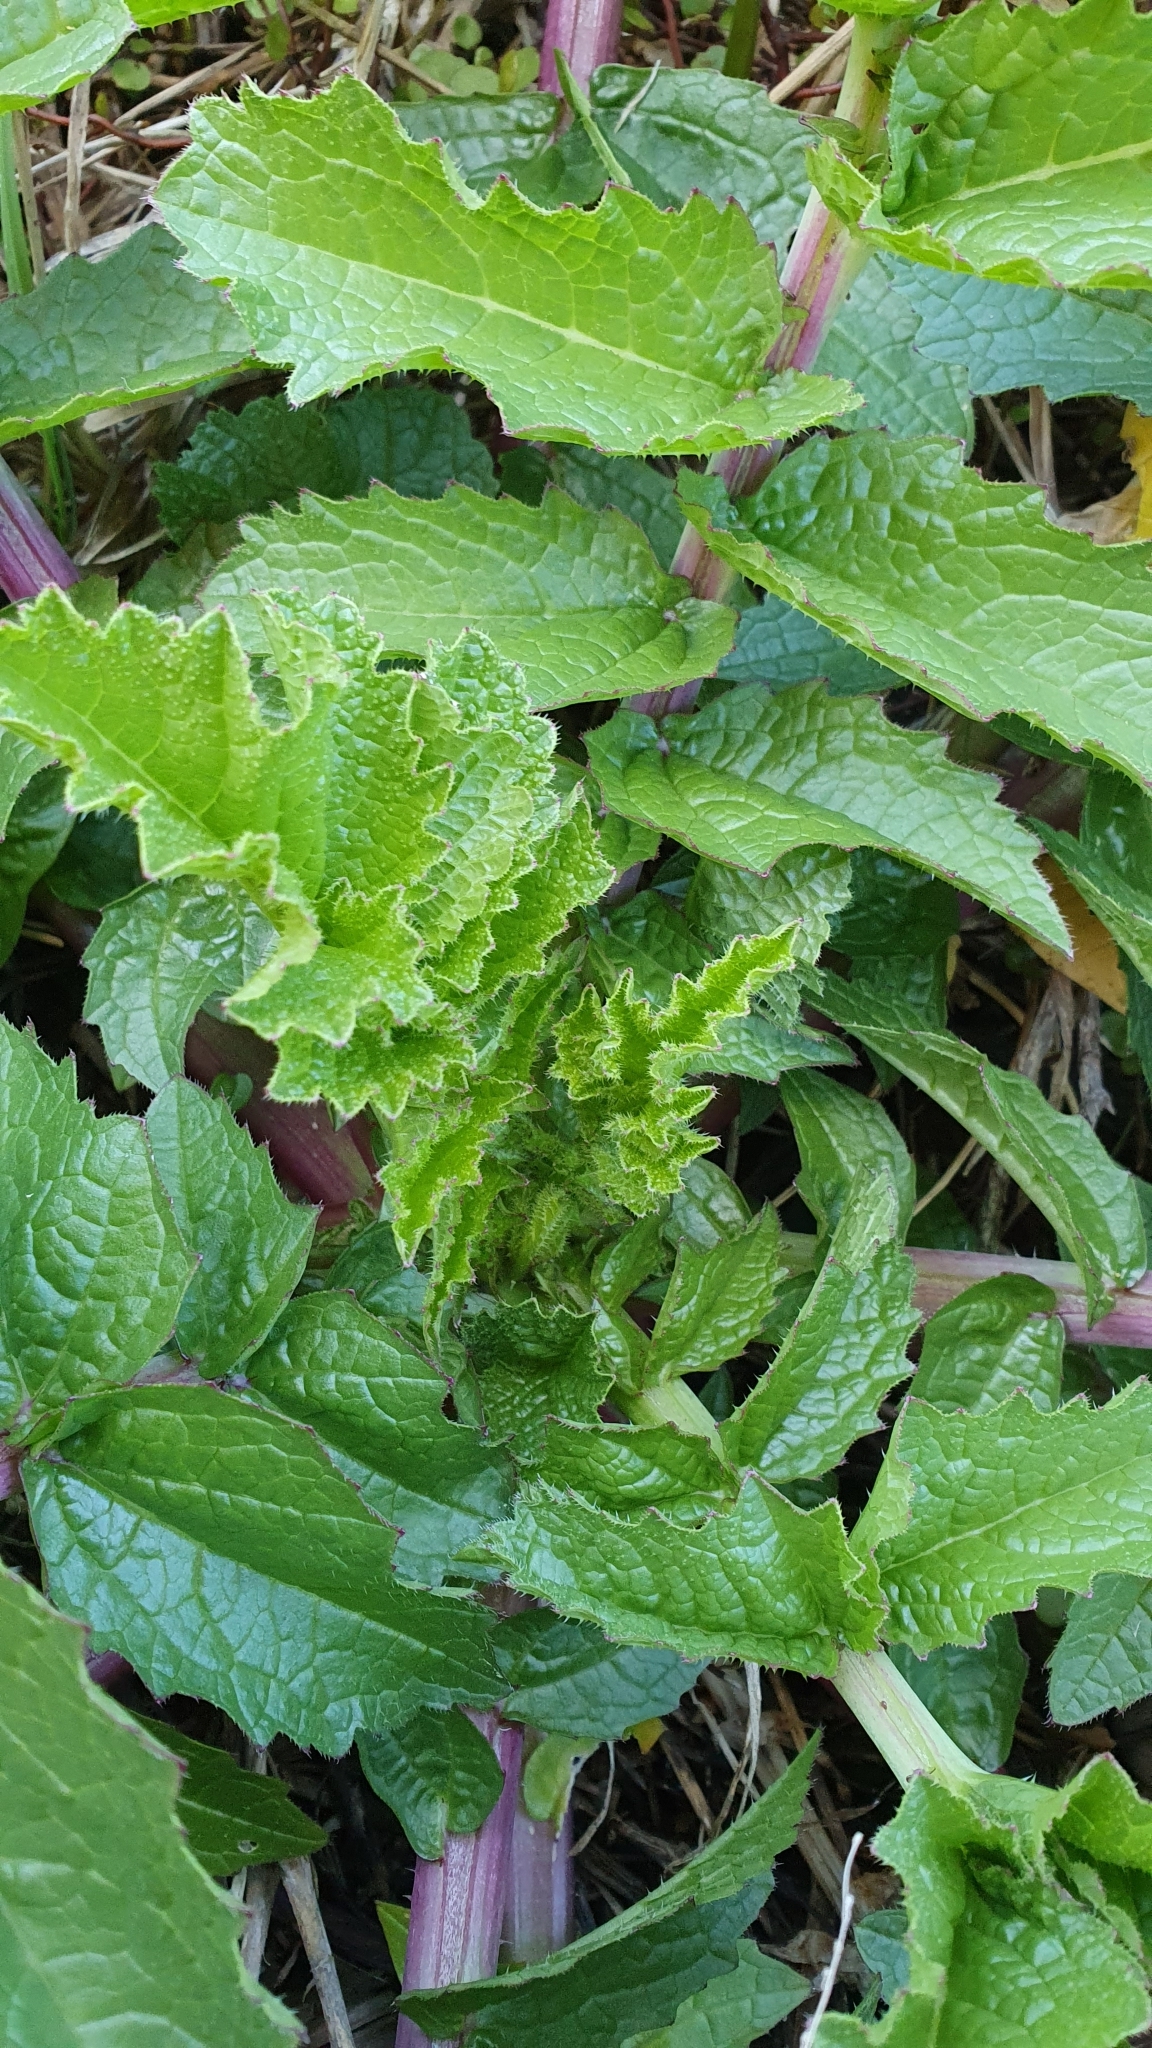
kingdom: Plantae
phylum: Tracheophyta
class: Magnoliopsida
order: Brassicales
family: Brassicaceae
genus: Raphanus
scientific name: Raphanus raphanistrum
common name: Wild radish
